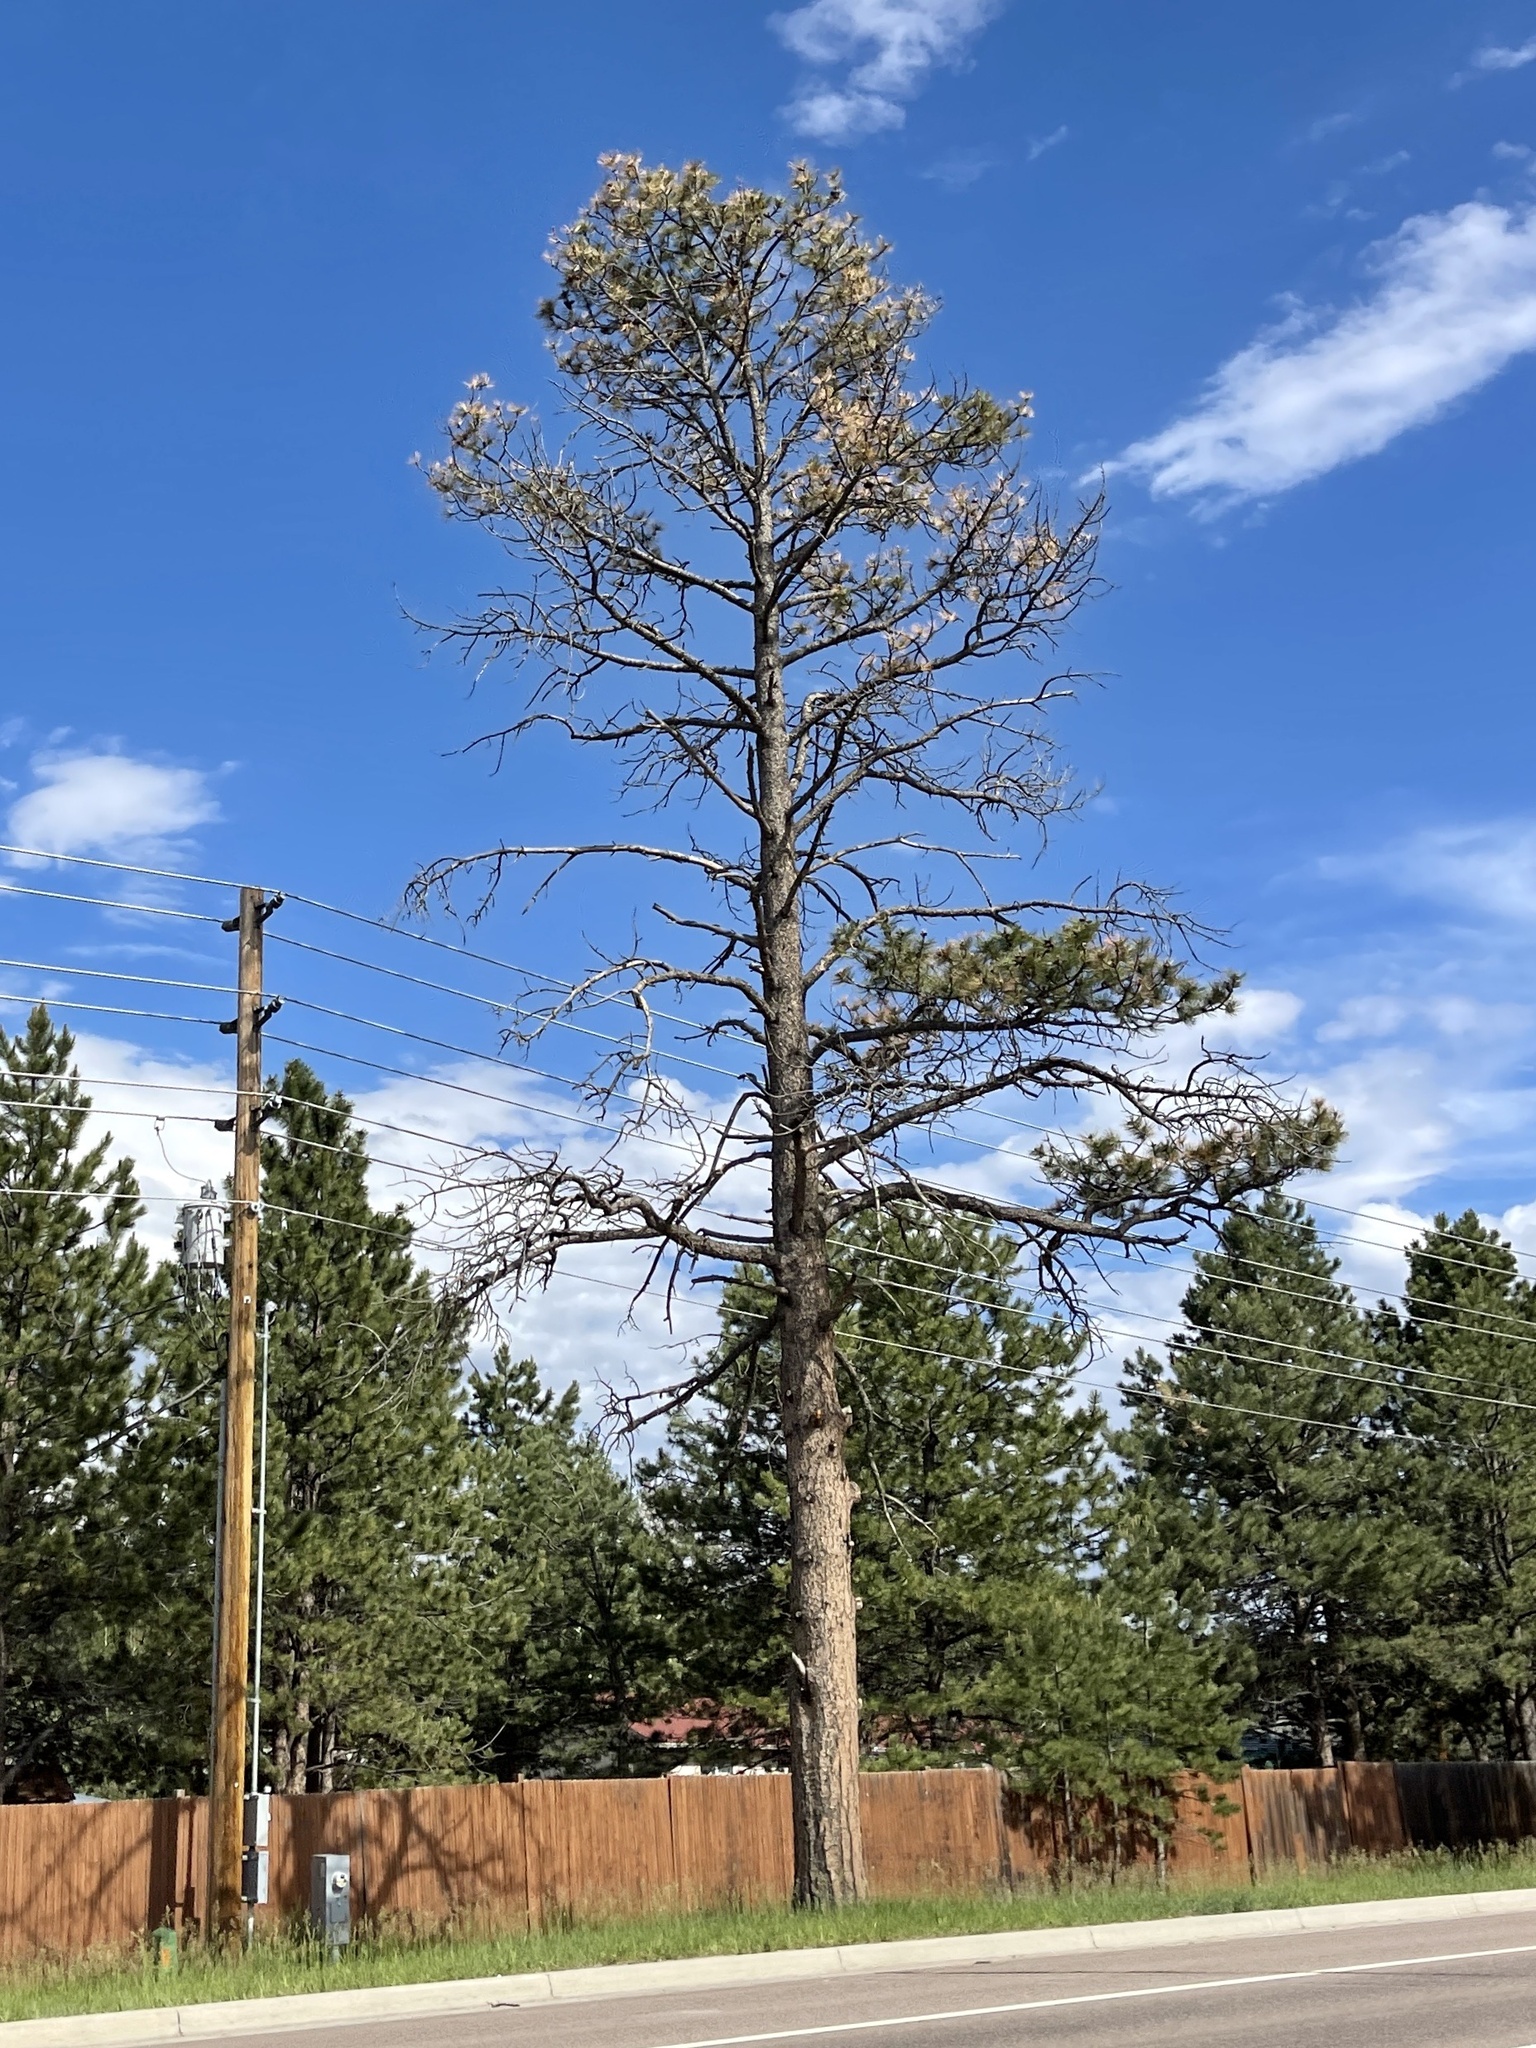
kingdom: Plantae
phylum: Tracheophyta
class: Pinopsida
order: Pinales
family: Pinaceae
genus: Pinus
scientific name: Pinus ponderosa
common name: Western yellow-pine
